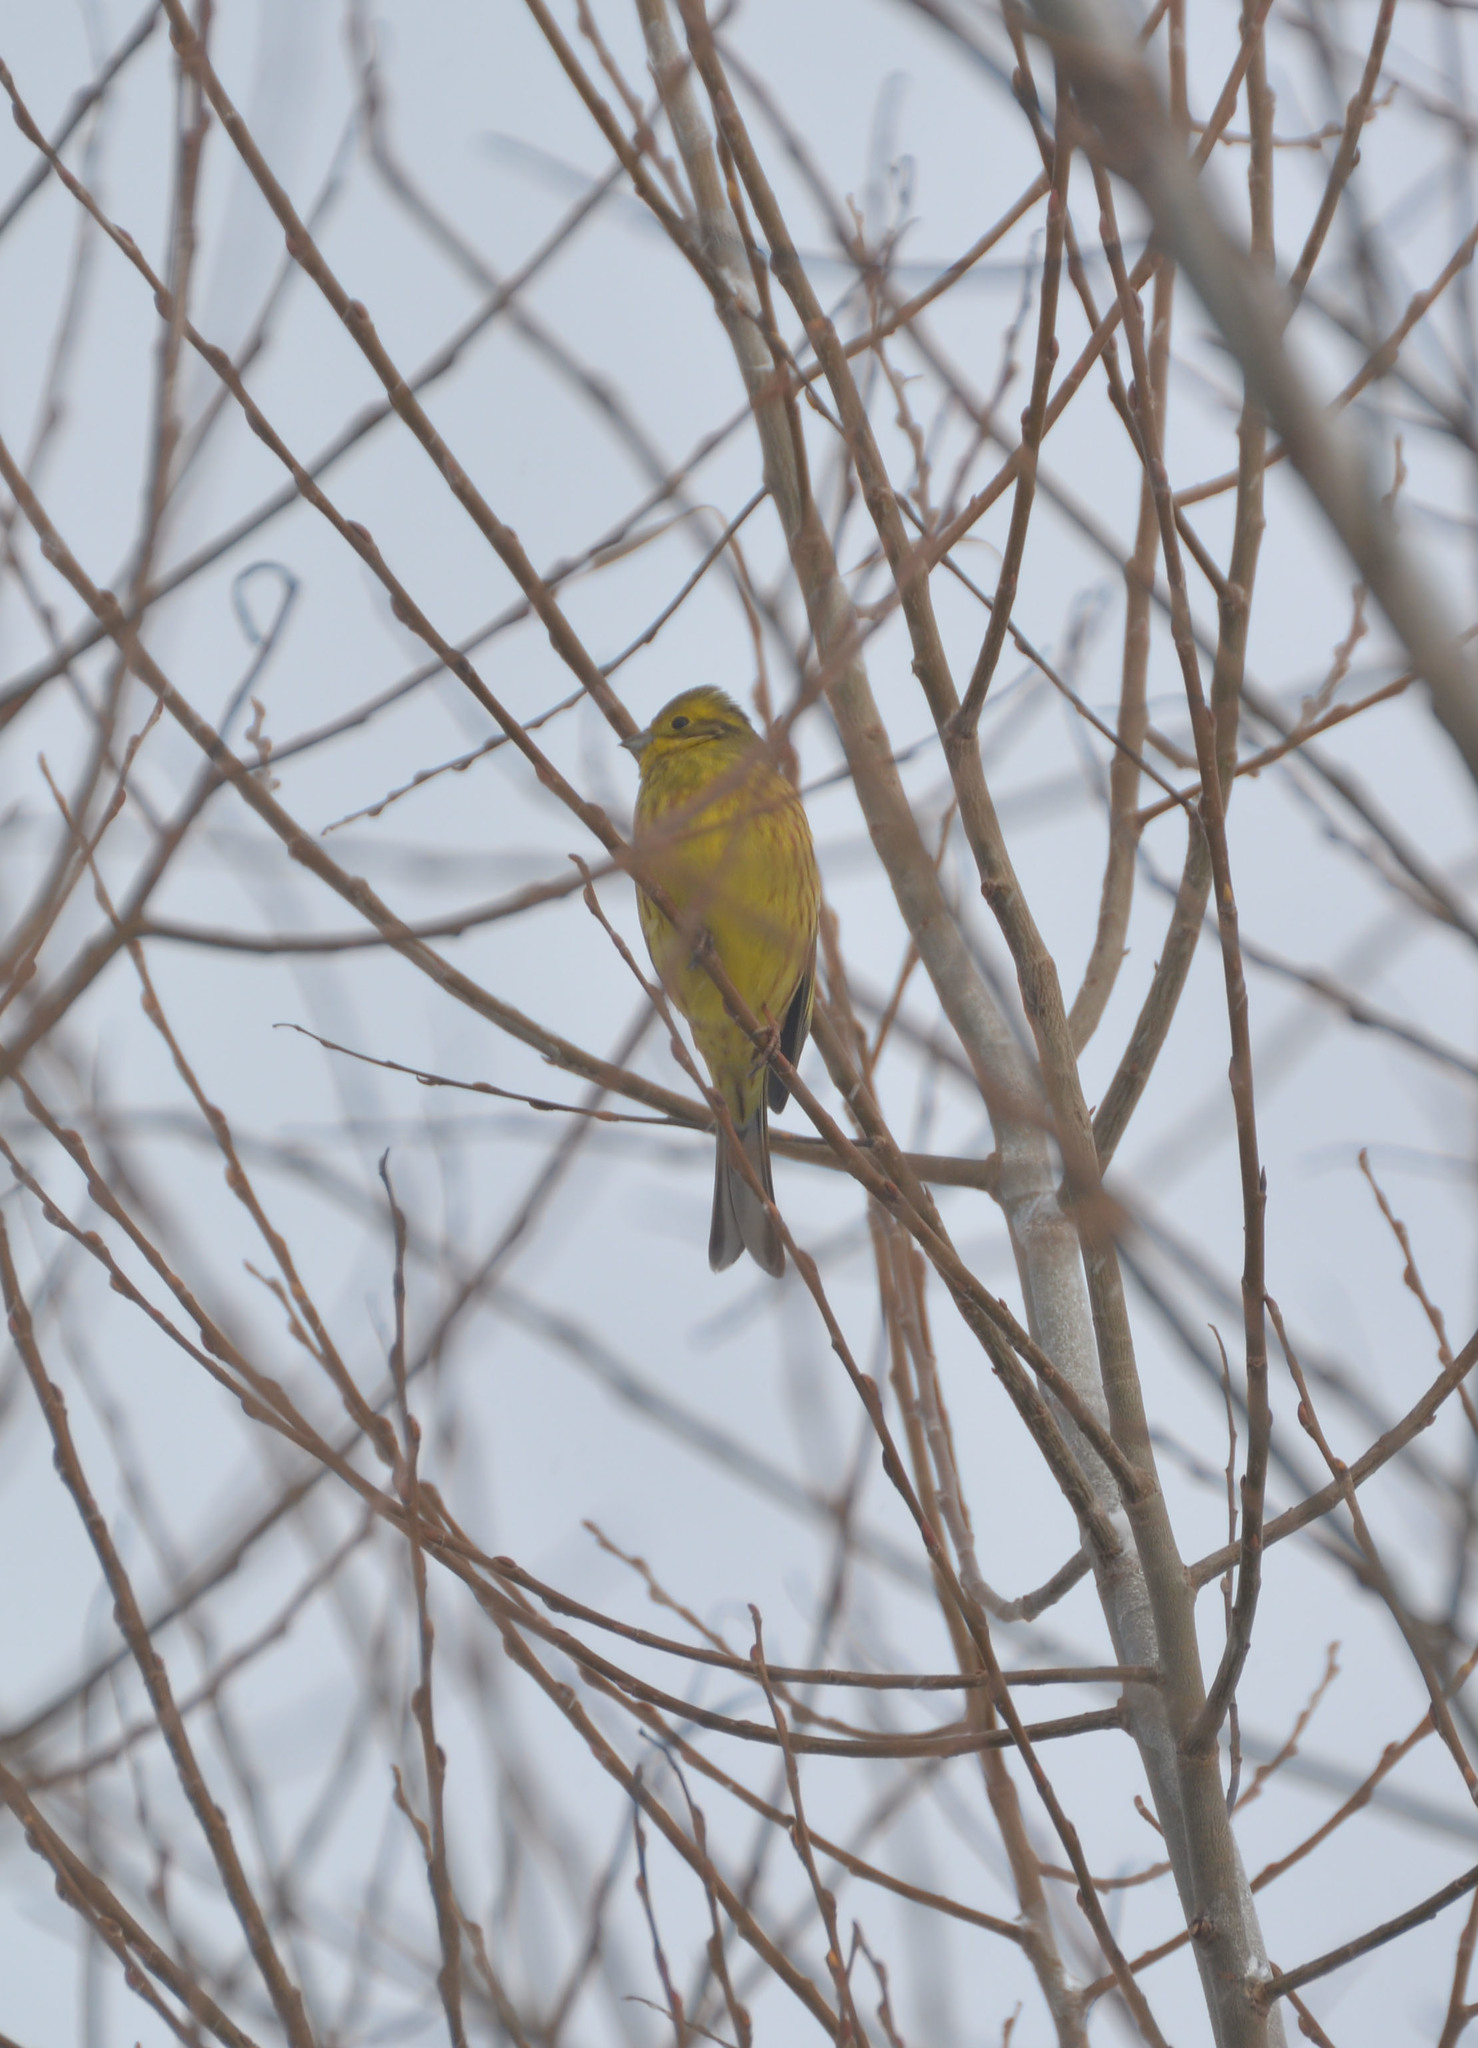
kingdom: Animalia
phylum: Chordata
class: Aves
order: Passeriformes
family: Emberizidae
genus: Emberiza
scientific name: Emberiza citrinella
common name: Yellowhammer
